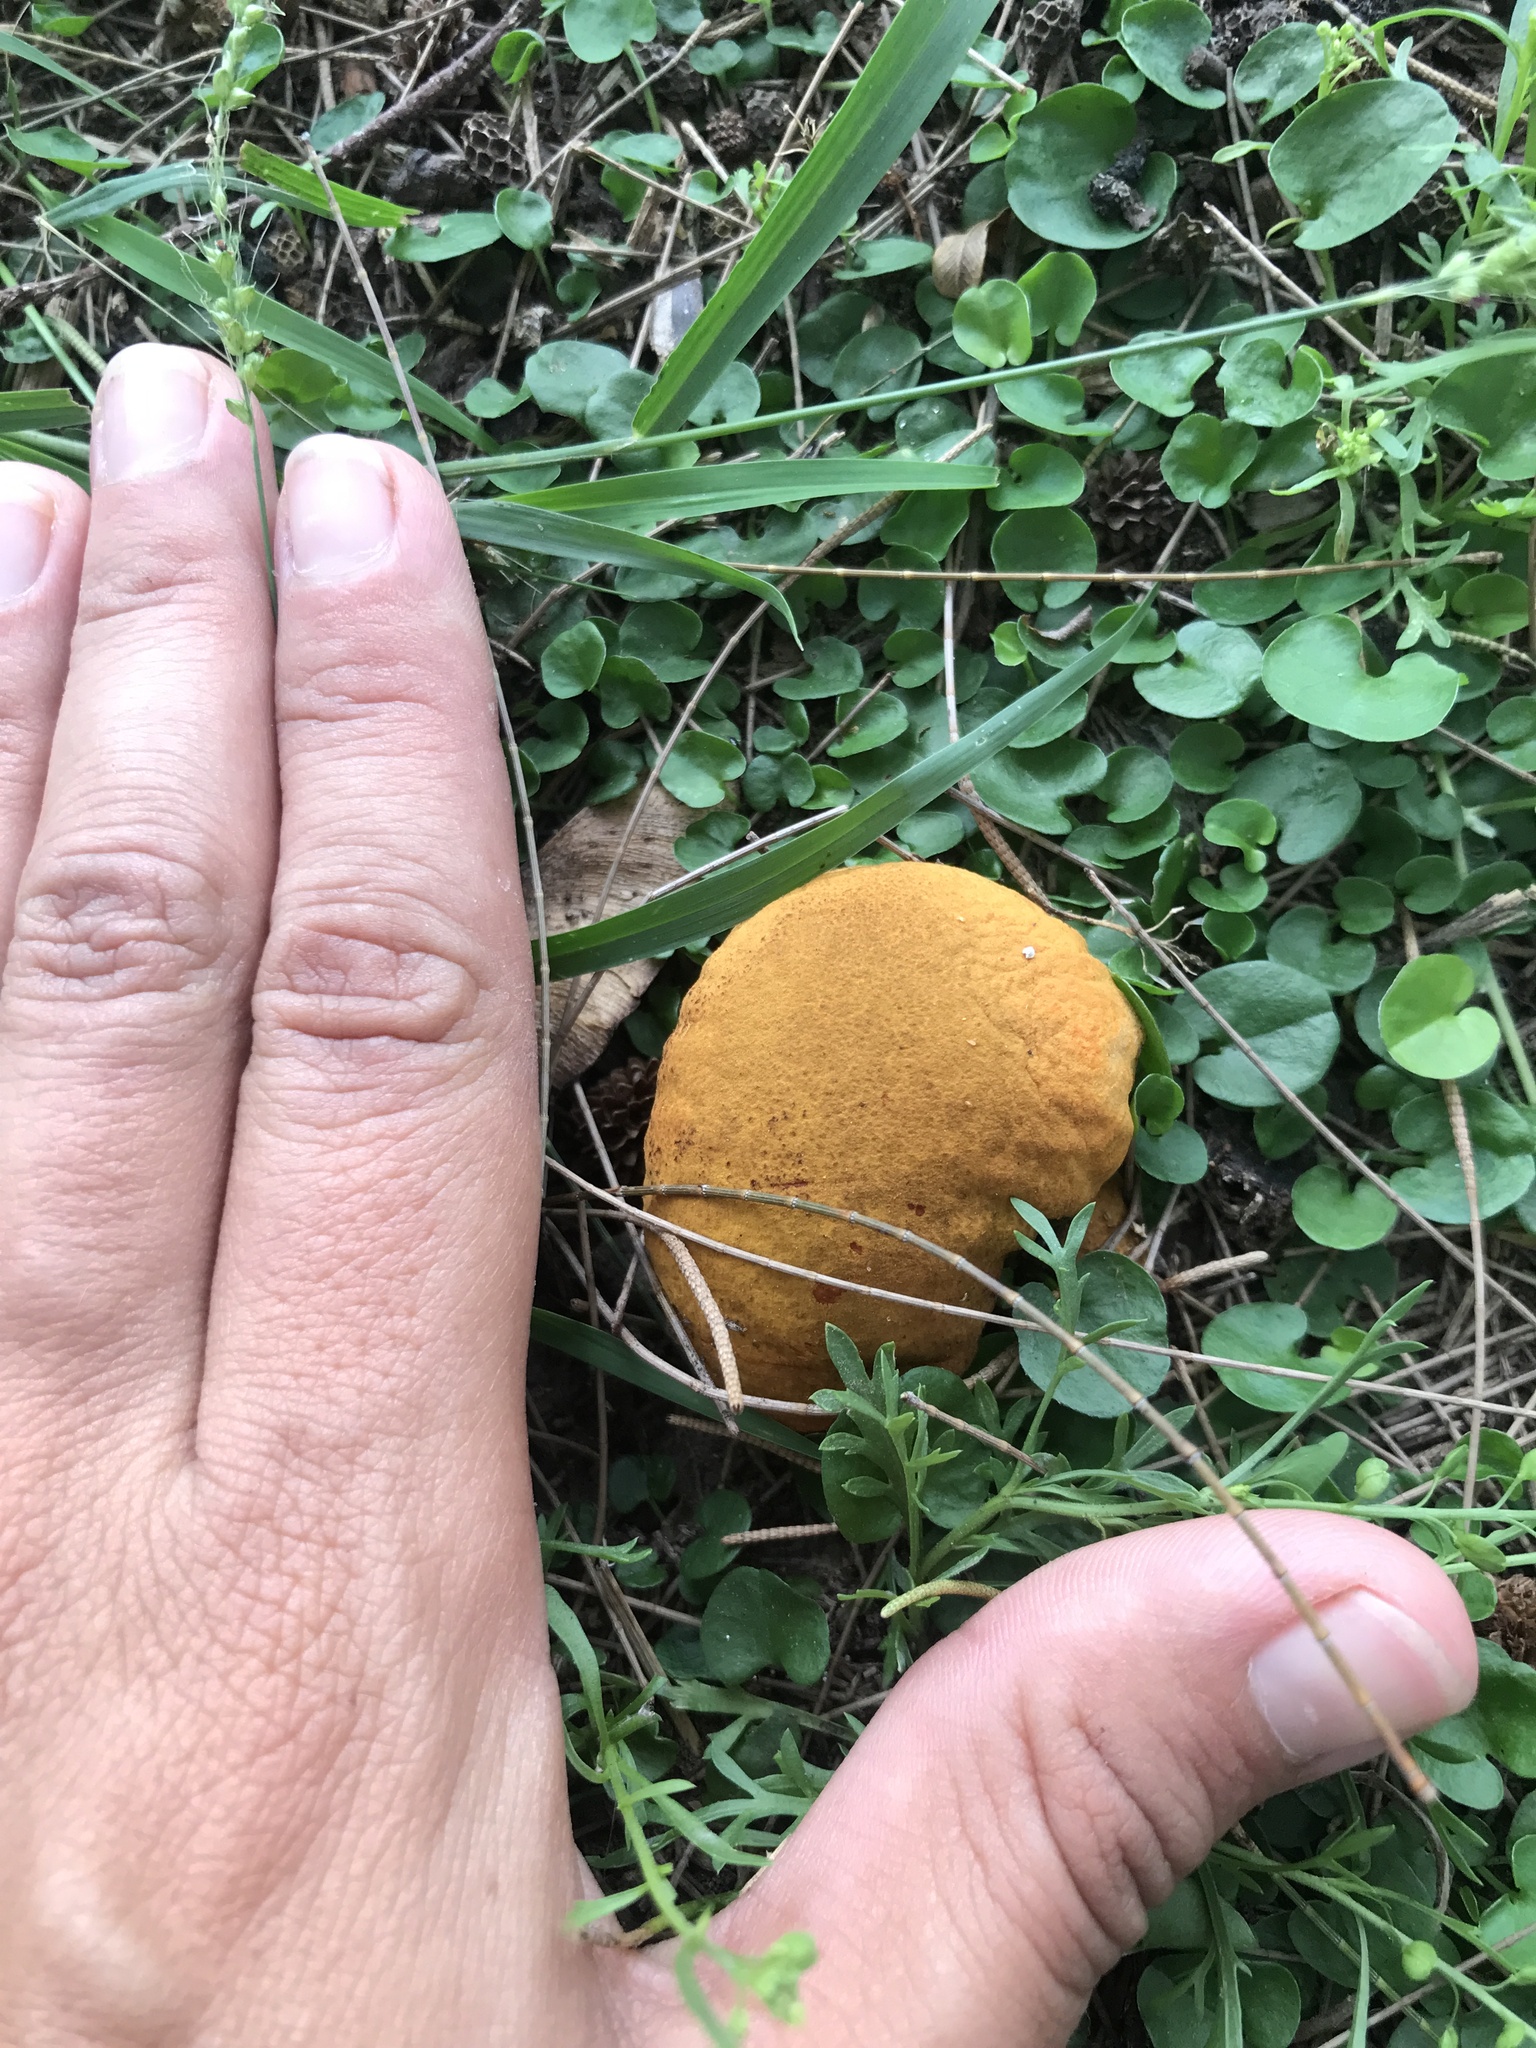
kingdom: Fungi
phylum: Basidiomycota
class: Agaricomycetes
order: Agaricales
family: Lycoperdaceae
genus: Calvatia
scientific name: Calvatia candida
